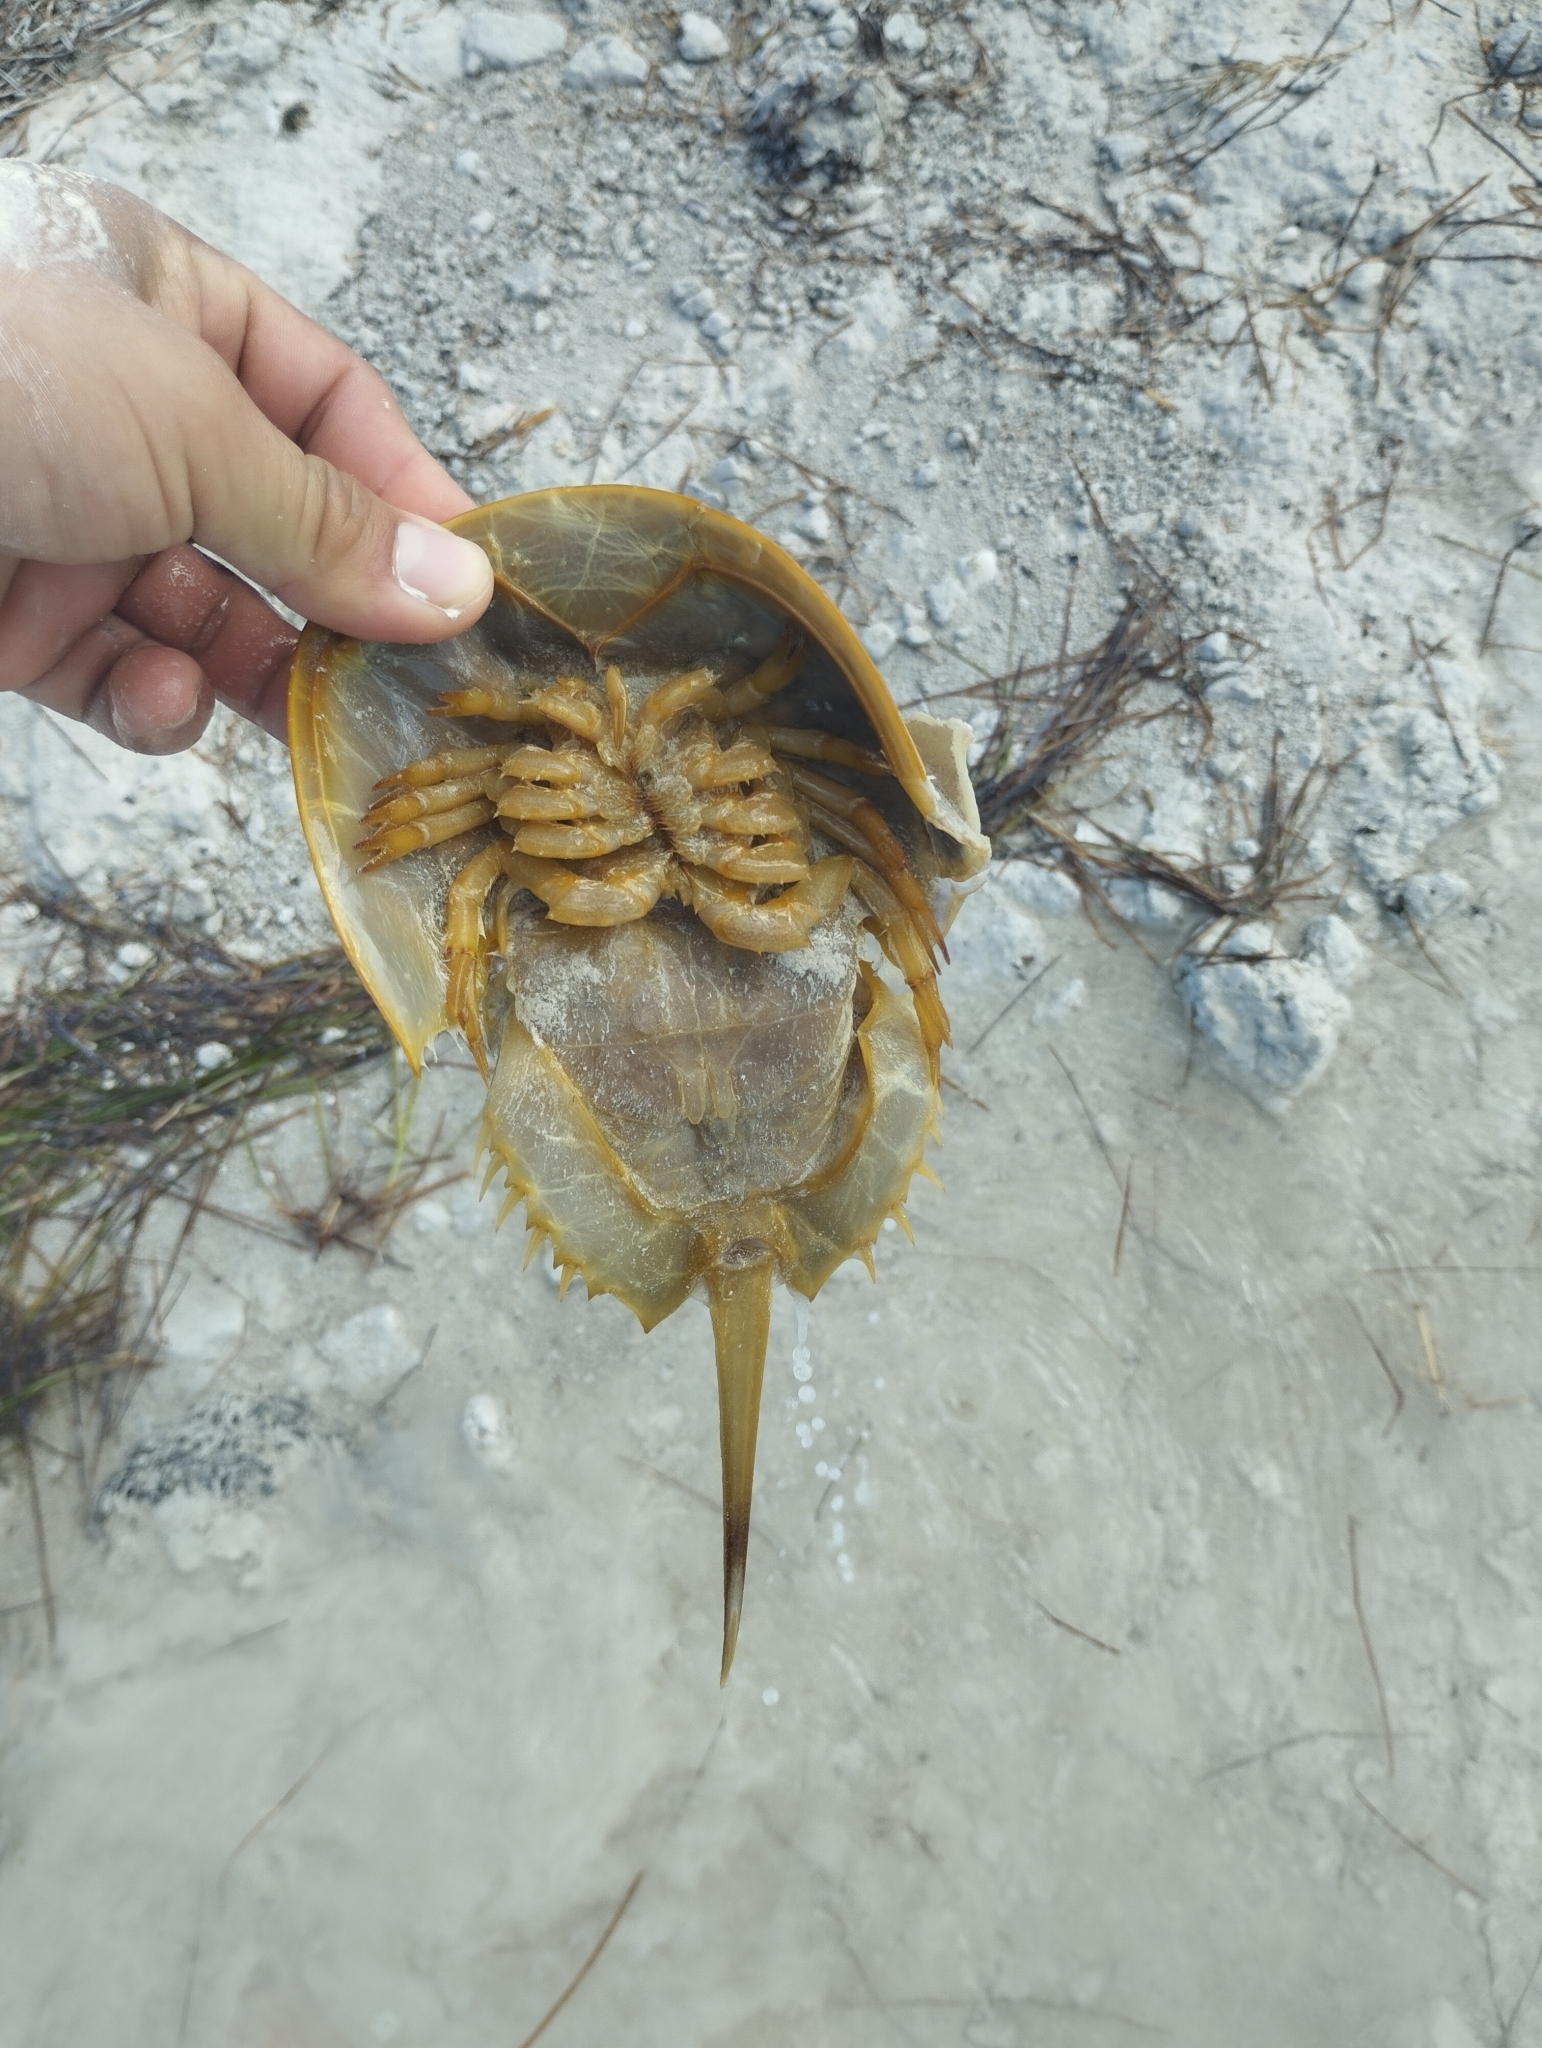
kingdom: Animalia
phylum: Arthropoda
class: Merostomata
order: Xiphosurida
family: Limulidae
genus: Limulus
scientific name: Limulus polyphemus
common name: Horseshoe crab
